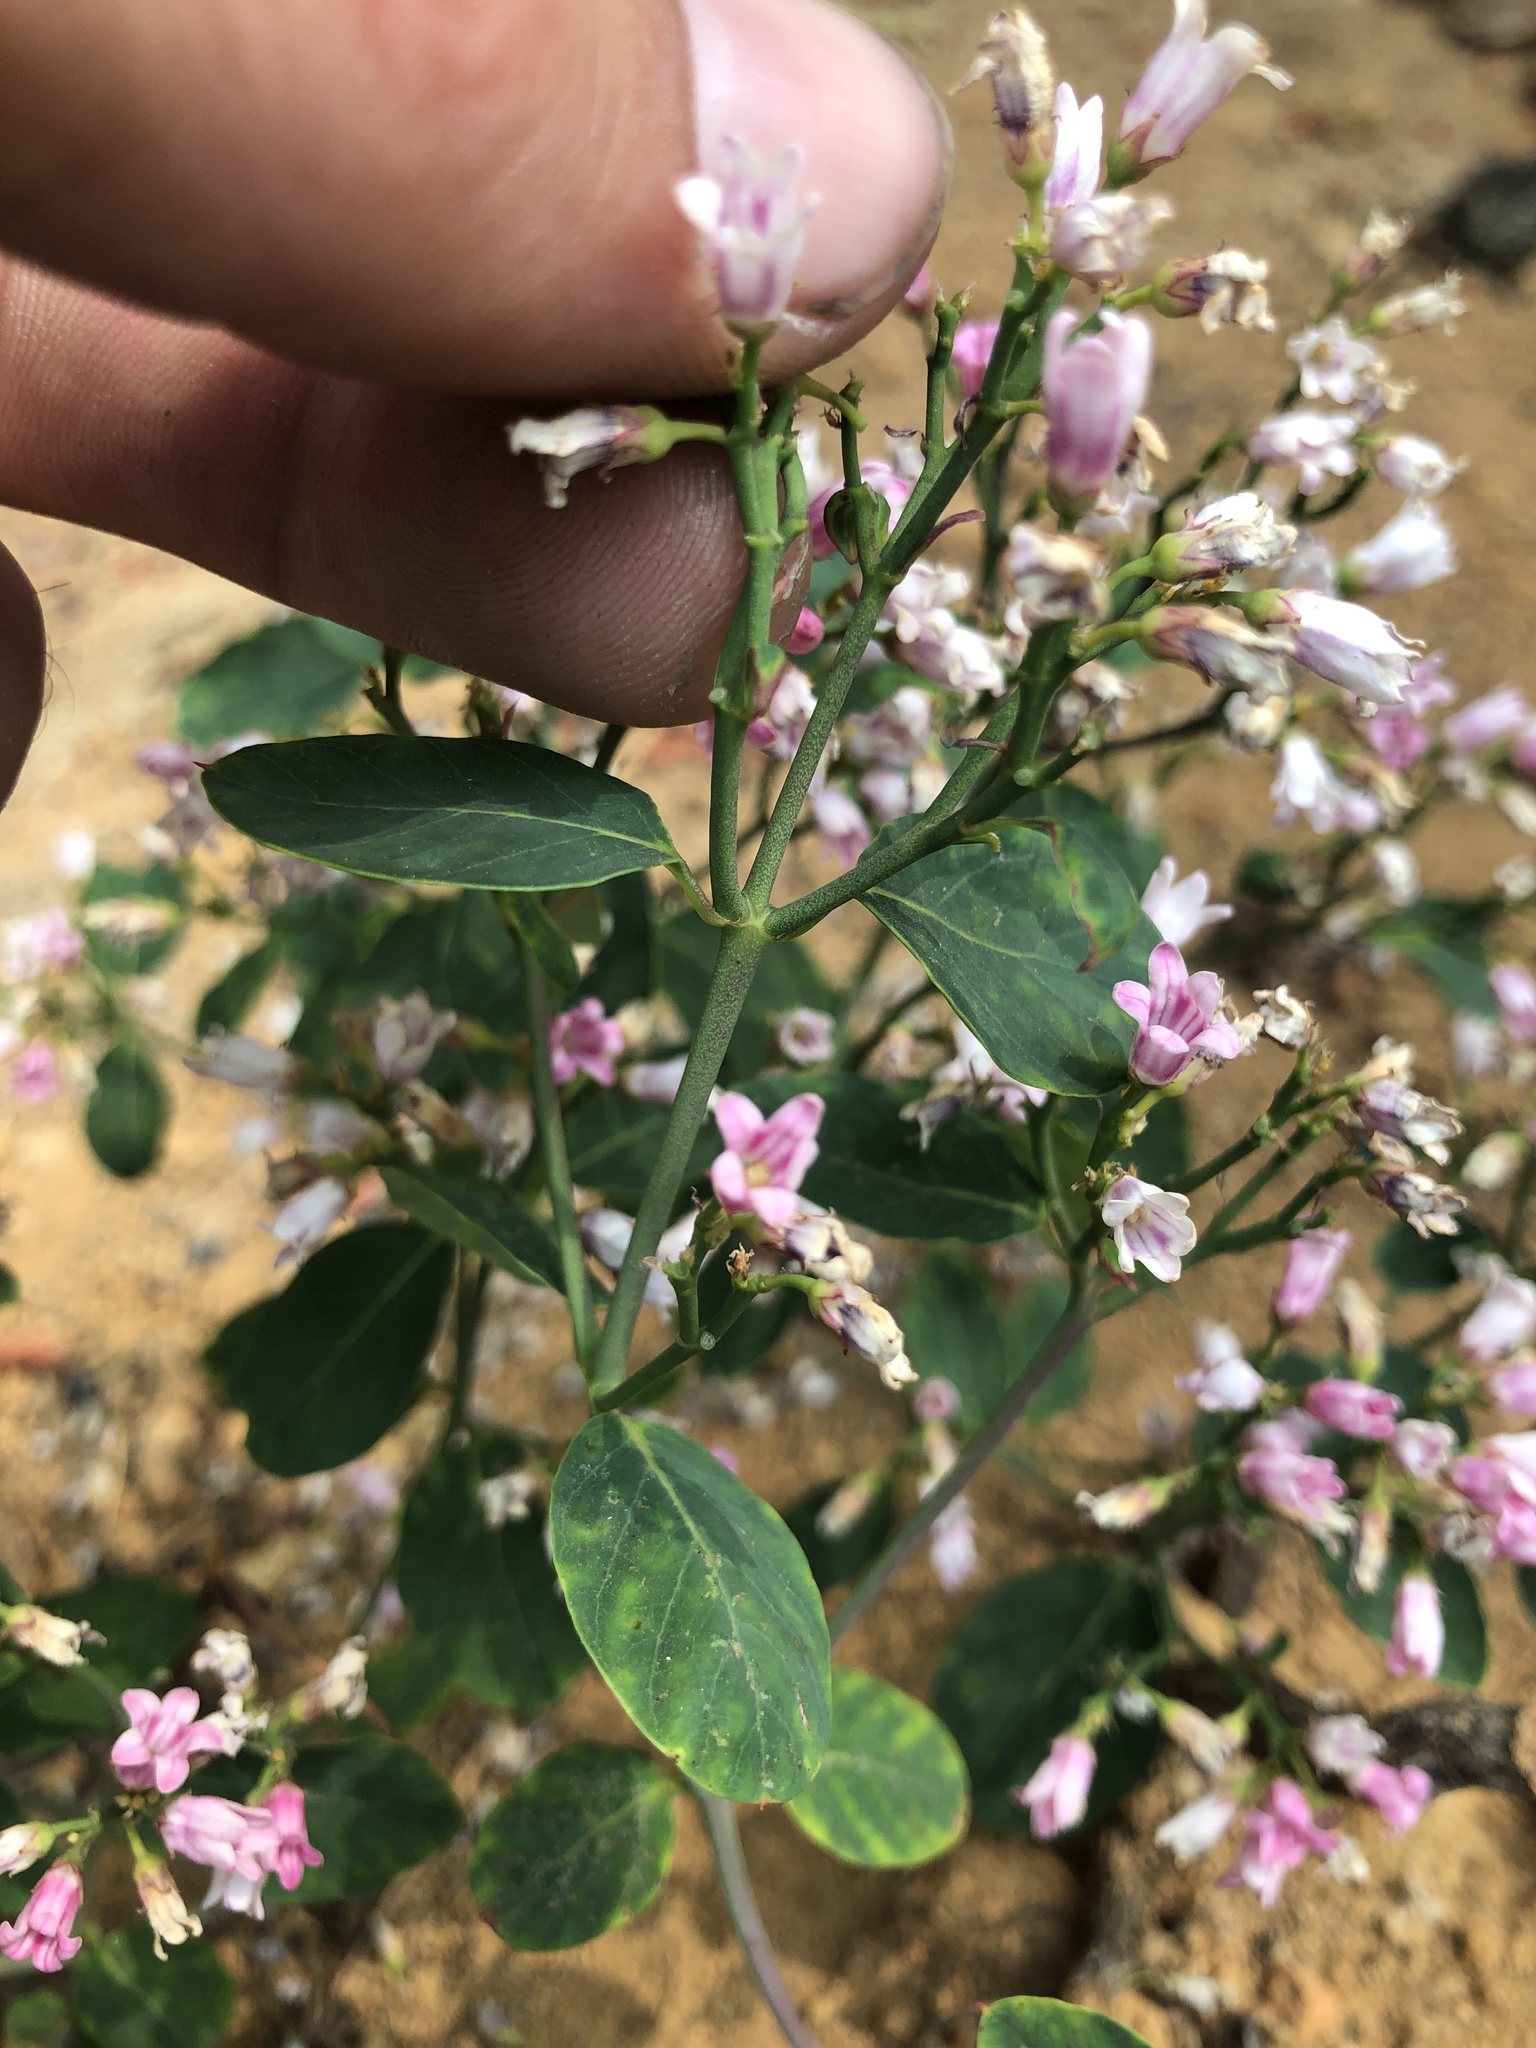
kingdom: Plantae
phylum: Tracheophyta
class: Magnoliopsida
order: Gentianales
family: Apocynaceae
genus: Apocynum
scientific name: Apocynum androsaemifolium
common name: Spreading dogbane
